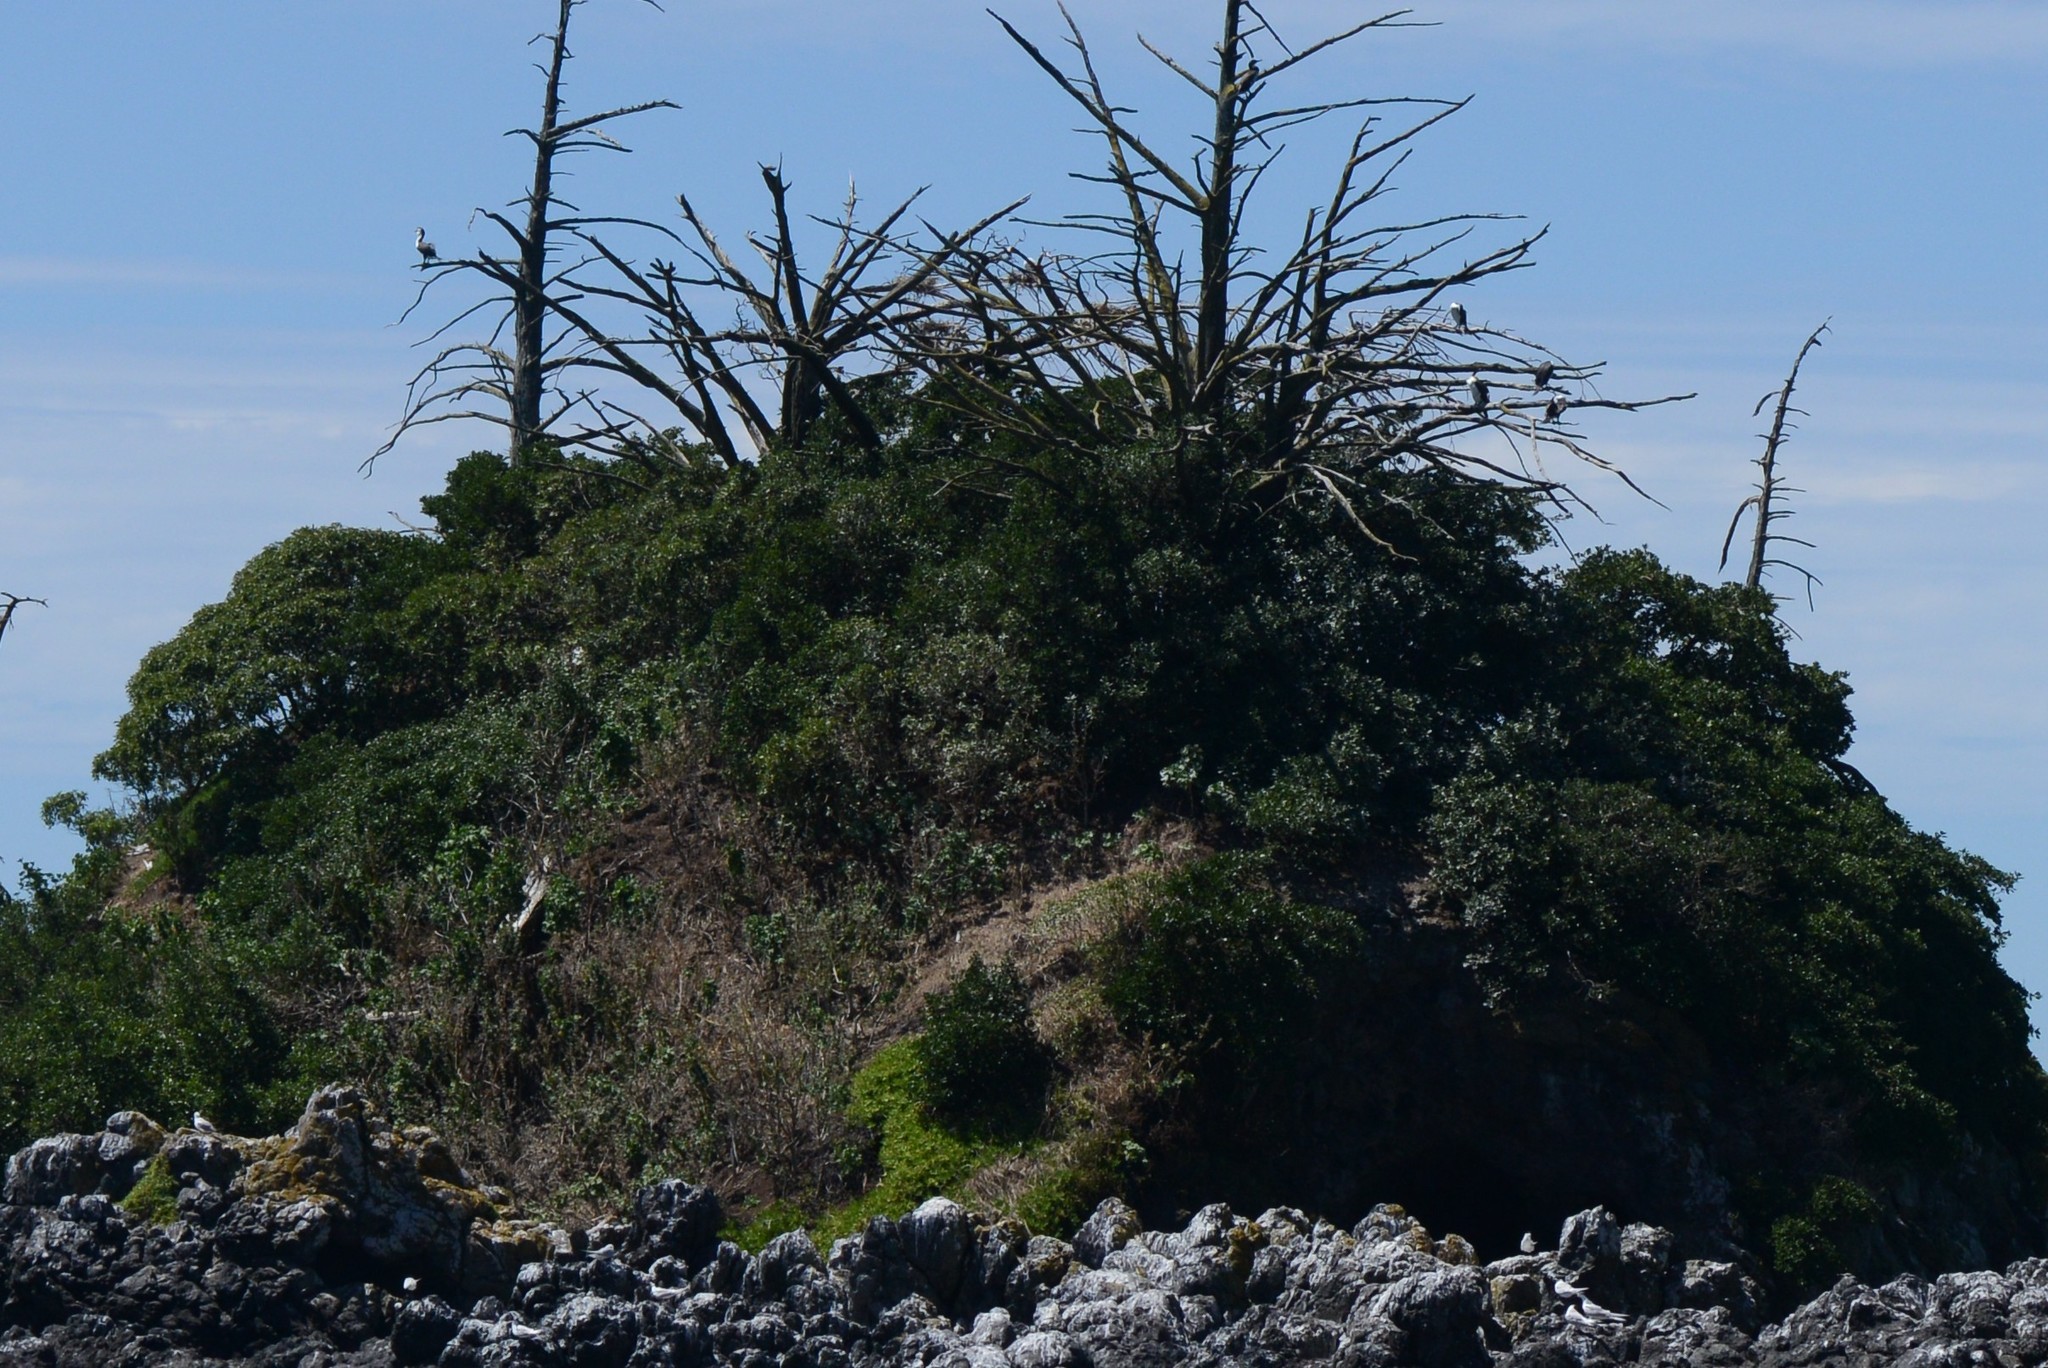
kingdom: Animalia
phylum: Chordata
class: Aves
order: Suliformes
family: Phalacrocoracidae
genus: Phalacrocorax
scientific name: Phalacrocorax varius
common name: Pied cormorant
